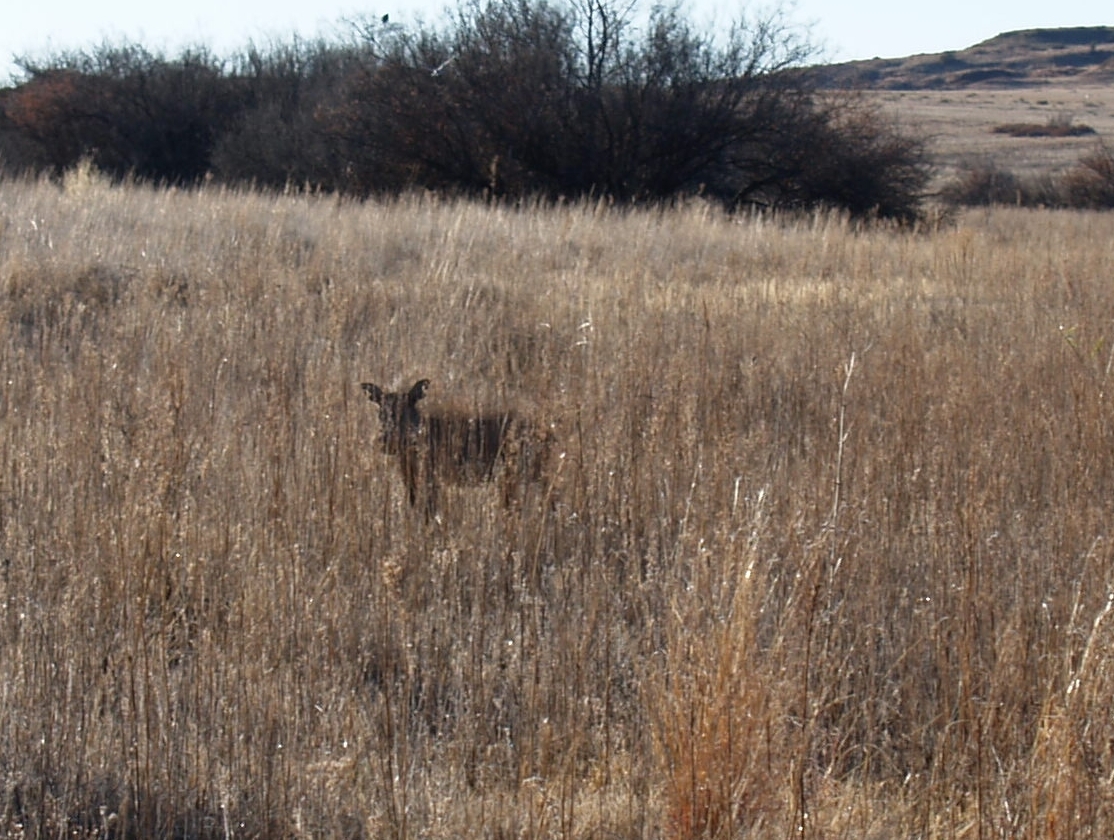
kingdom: Animalia
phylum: Chordata
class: Mammalia
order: Artiodactyla
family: Suidae
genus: Phacochoerus
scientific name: Phacochoerus africanus
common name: Common warthog
